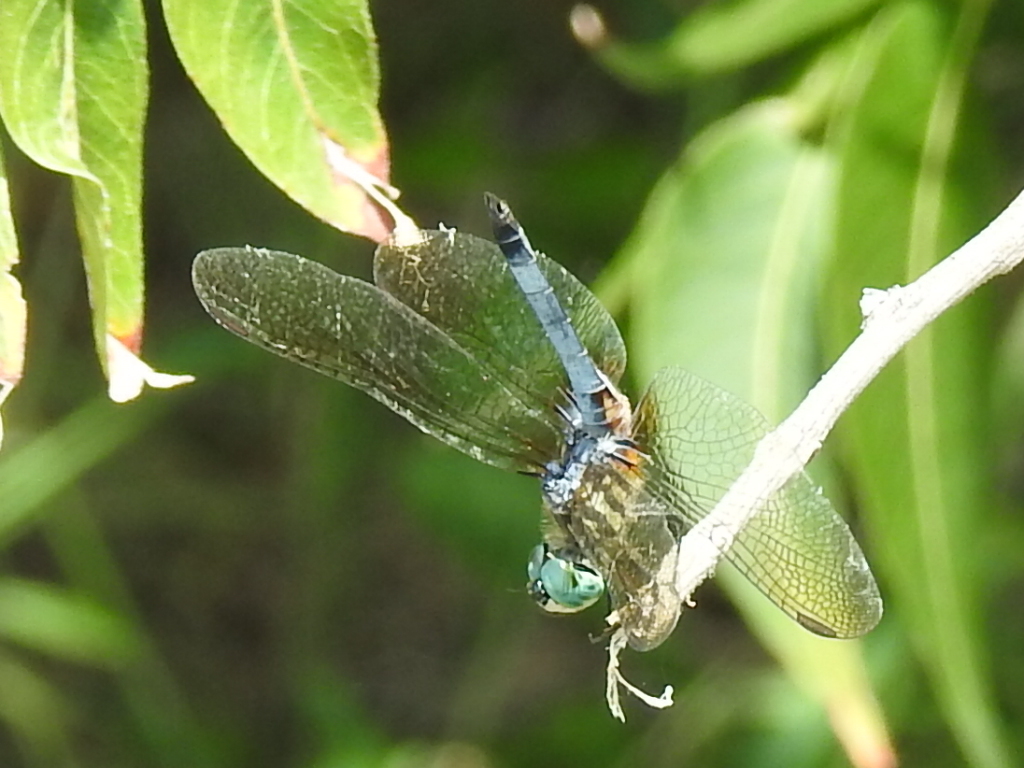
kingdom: Animalia
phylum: Arthropoda
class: Insecta
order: Odonata
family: Libellulidae
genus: Pachydiplax
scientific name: Pachydiplax longipennis
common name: Blue dasher
